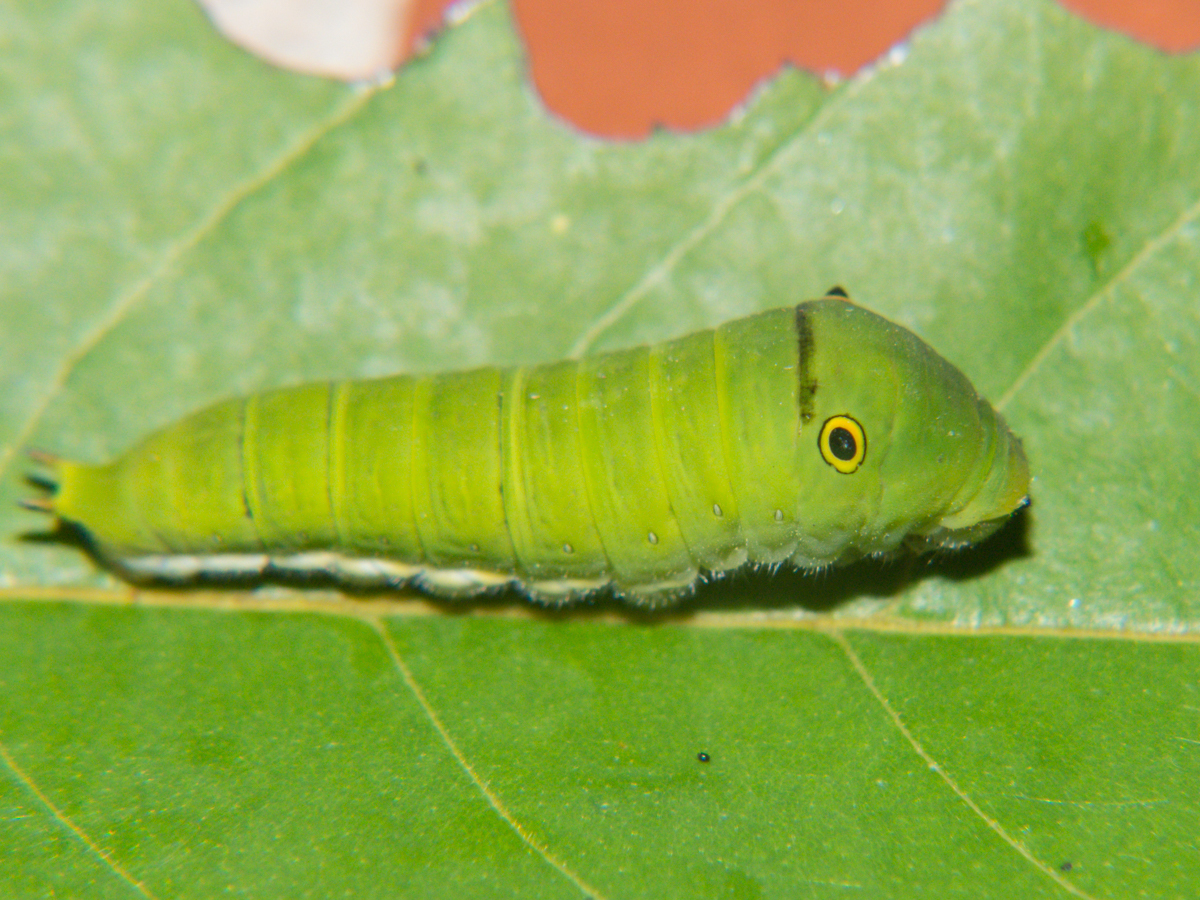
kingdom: Animalia
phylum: Arthropoda
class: Insecta
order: Lepidoptera
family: Papilionidae
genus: Graphium
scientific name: Graphium doson
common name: Common jay
